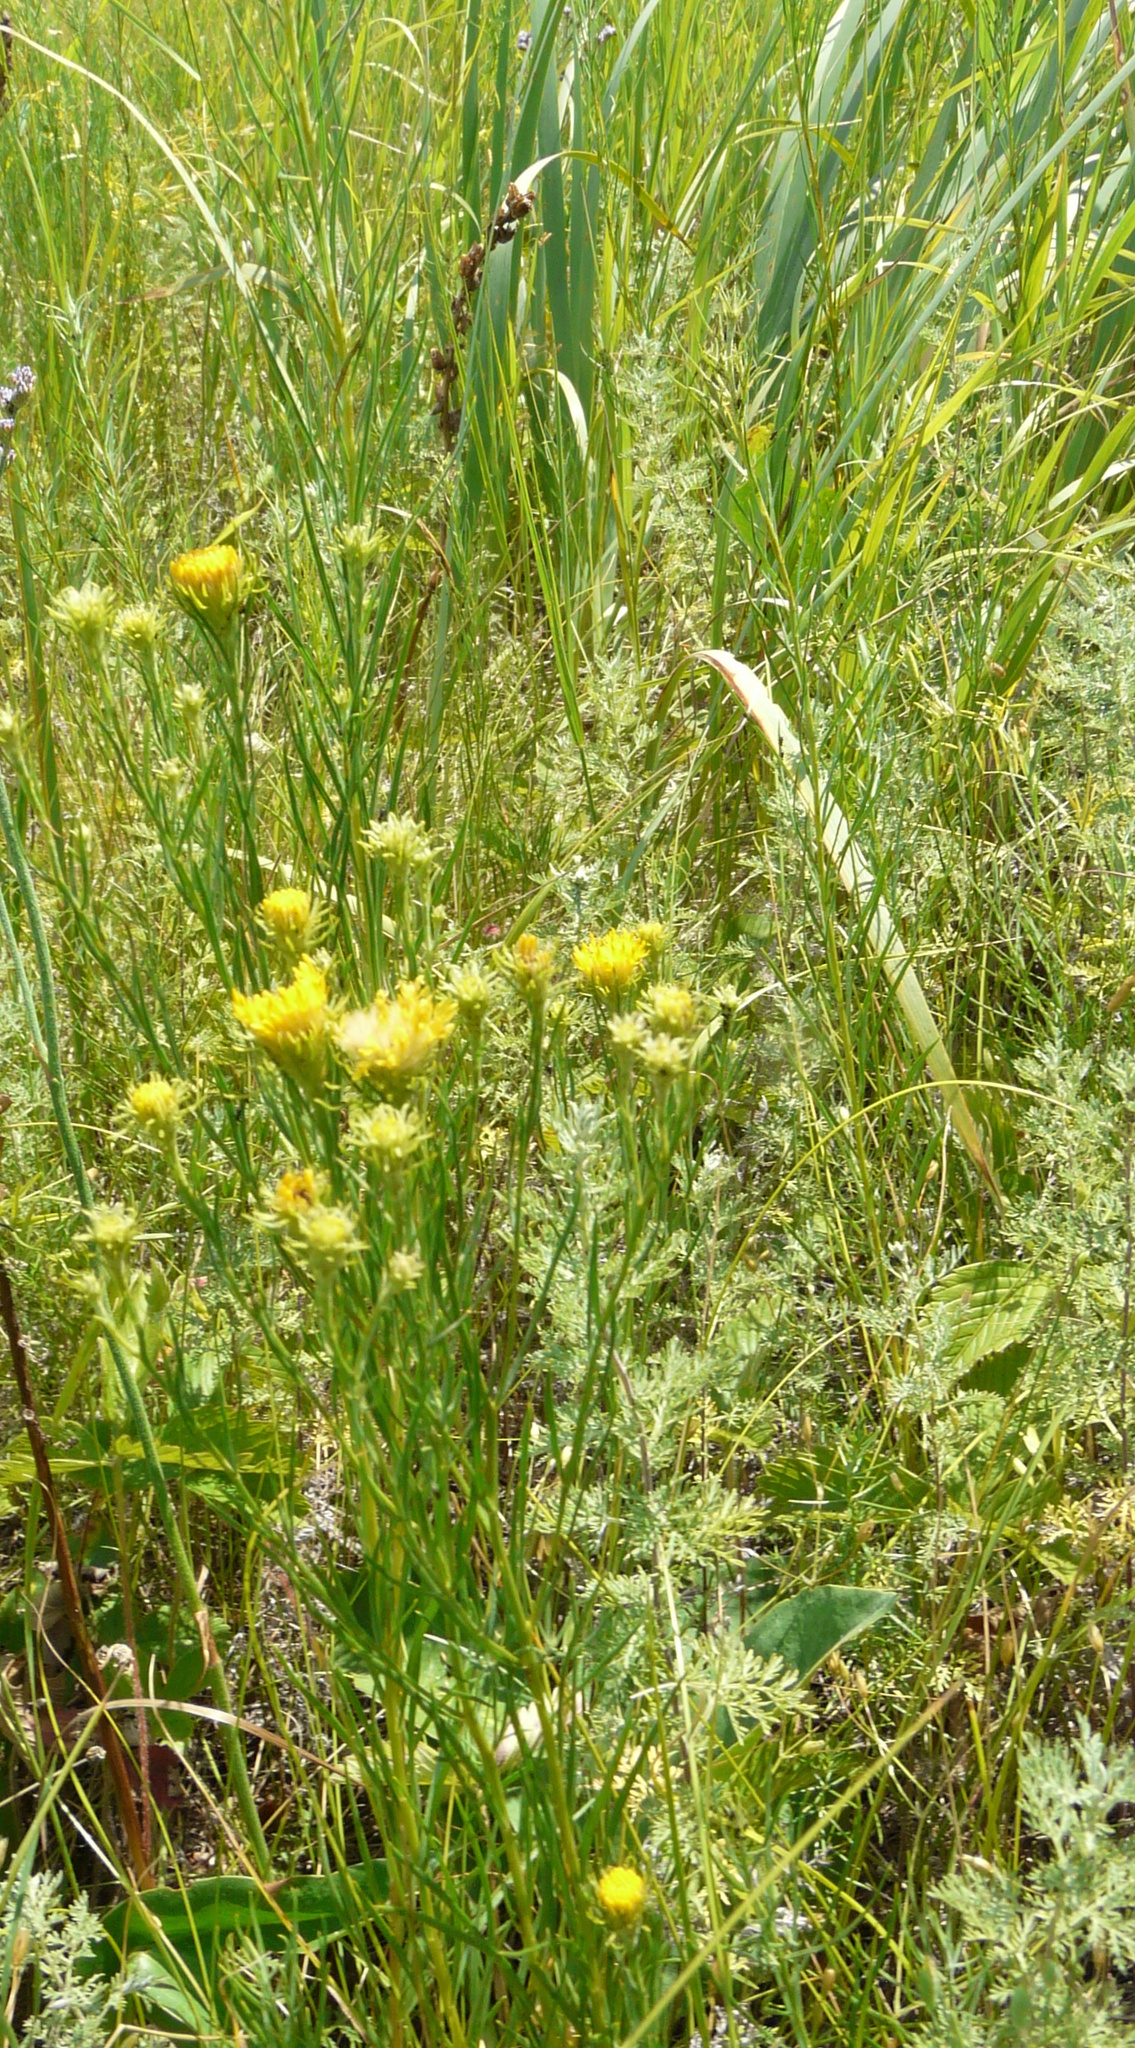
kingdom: Plantae
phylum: Tracheophyta
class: Magnoliopsida
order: Asterales
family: Asteraceae
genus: Galatella
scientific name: Galatella linosyris
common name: Goldilocks aster
